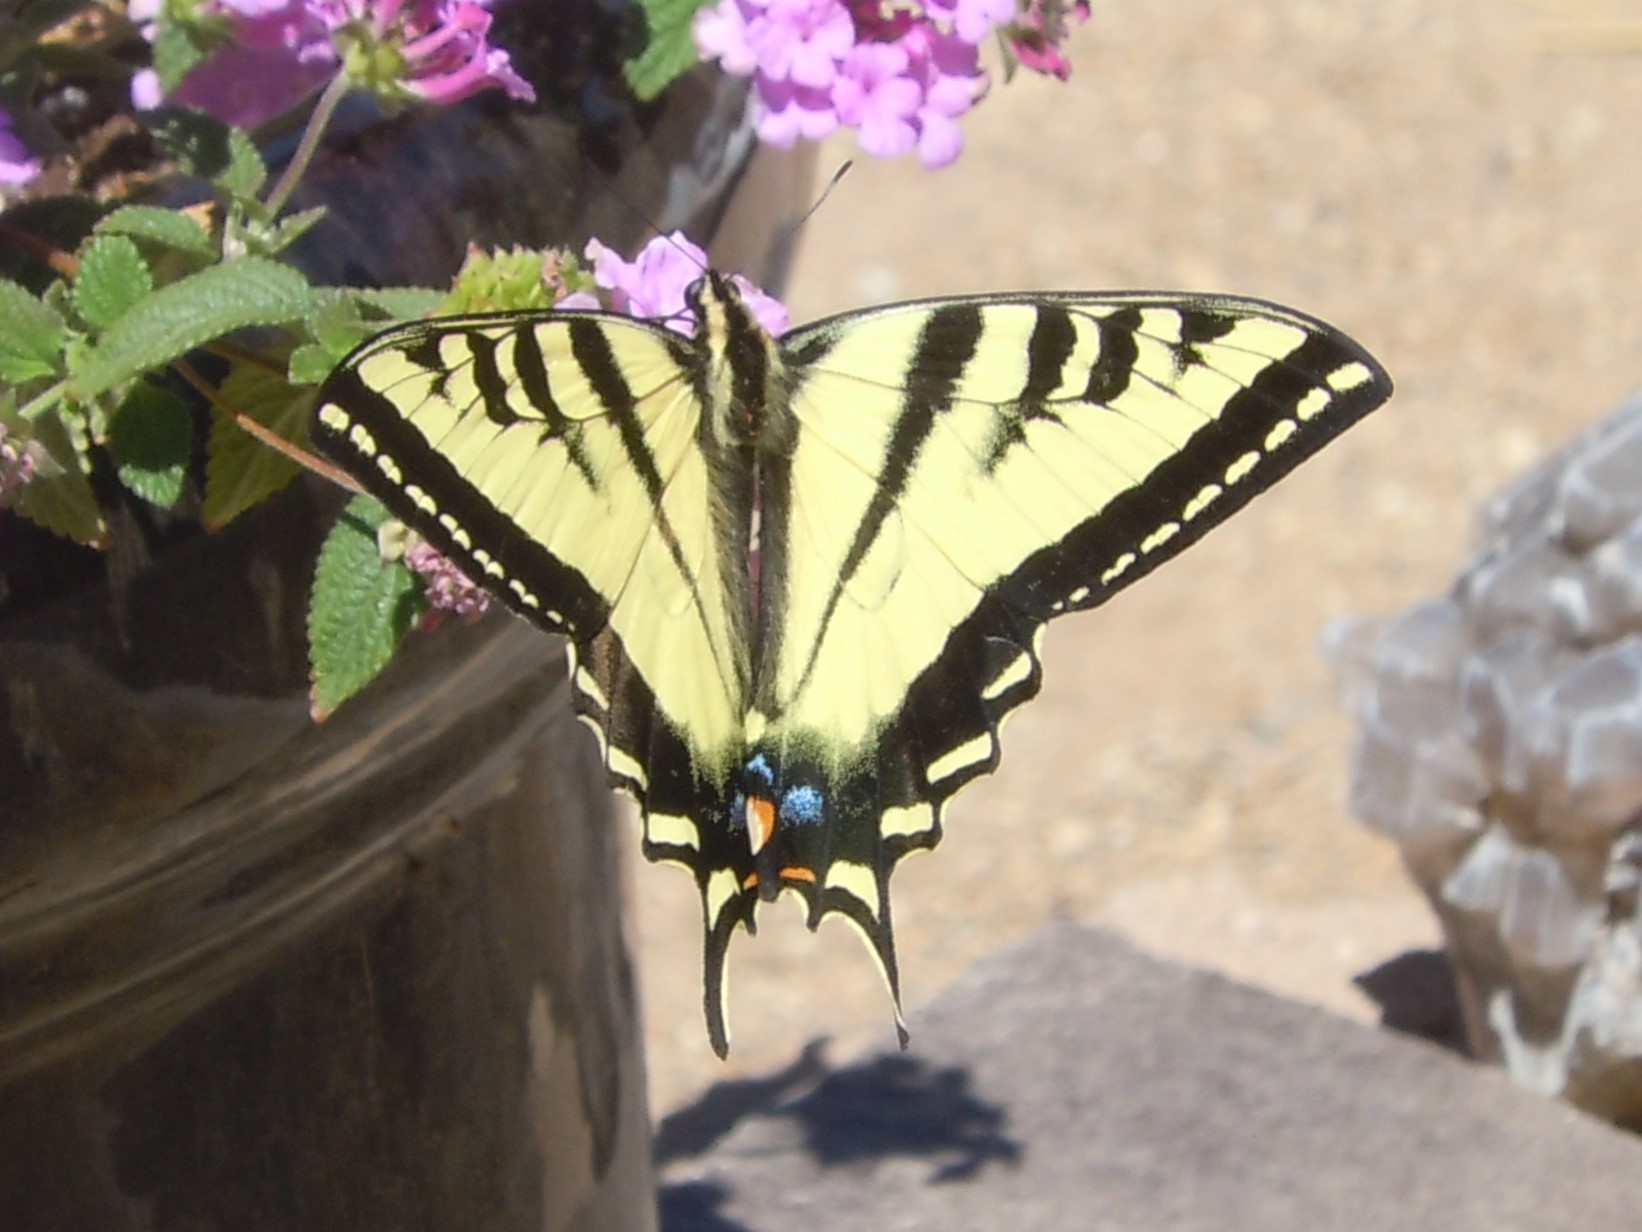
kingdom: Animalia
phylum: Arthropoda
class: Insecta
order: Lepidoptera
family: Papilionidae
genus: Papilio
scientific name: Papilio rutulus
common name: Western tiger swallowtail
